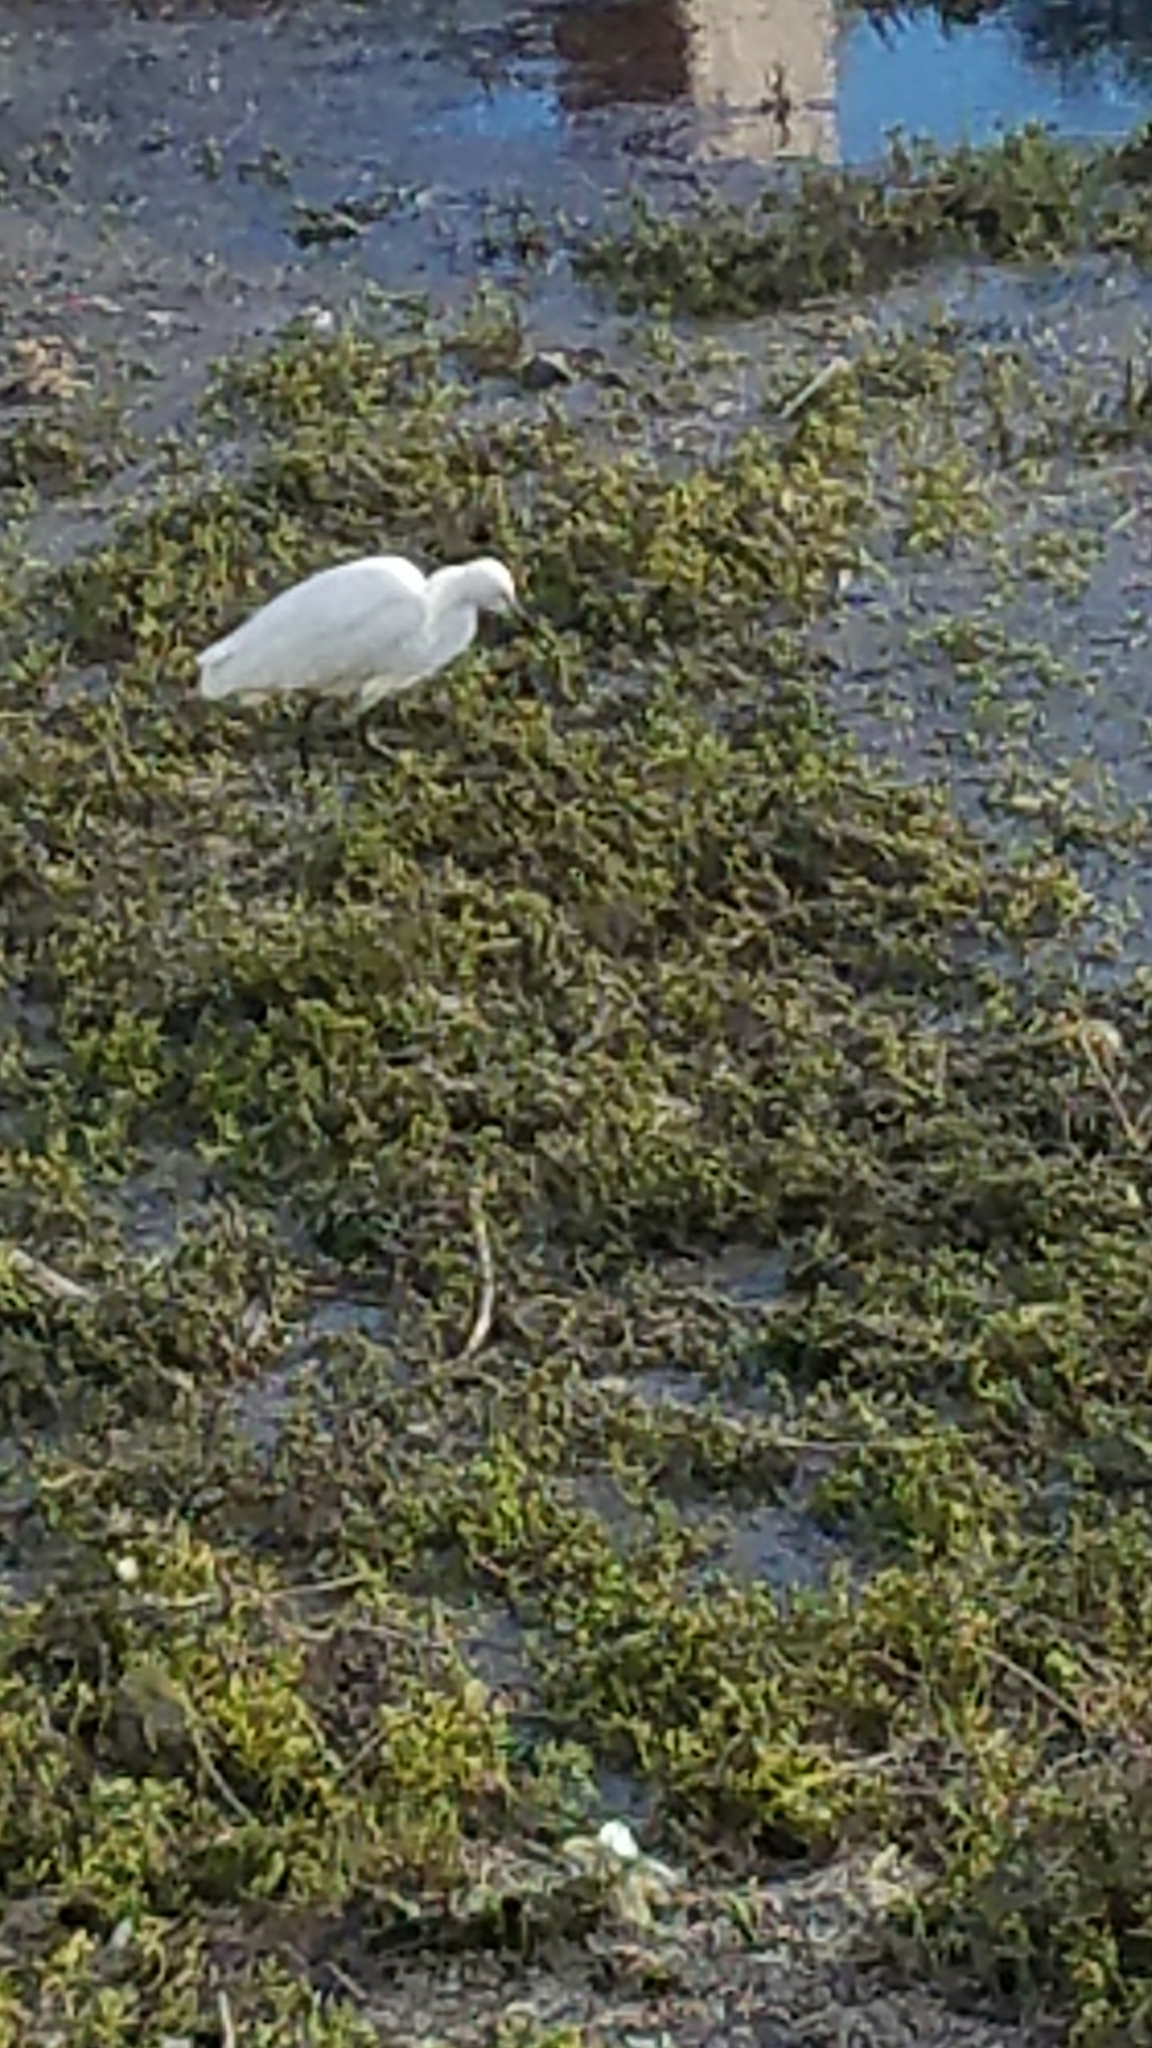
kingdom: Animalia
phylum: Chordata
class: Aves
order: Pelecaniformes
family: Ardeidae
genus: Egretta
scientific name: Egretta thula
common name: Snowy egret
